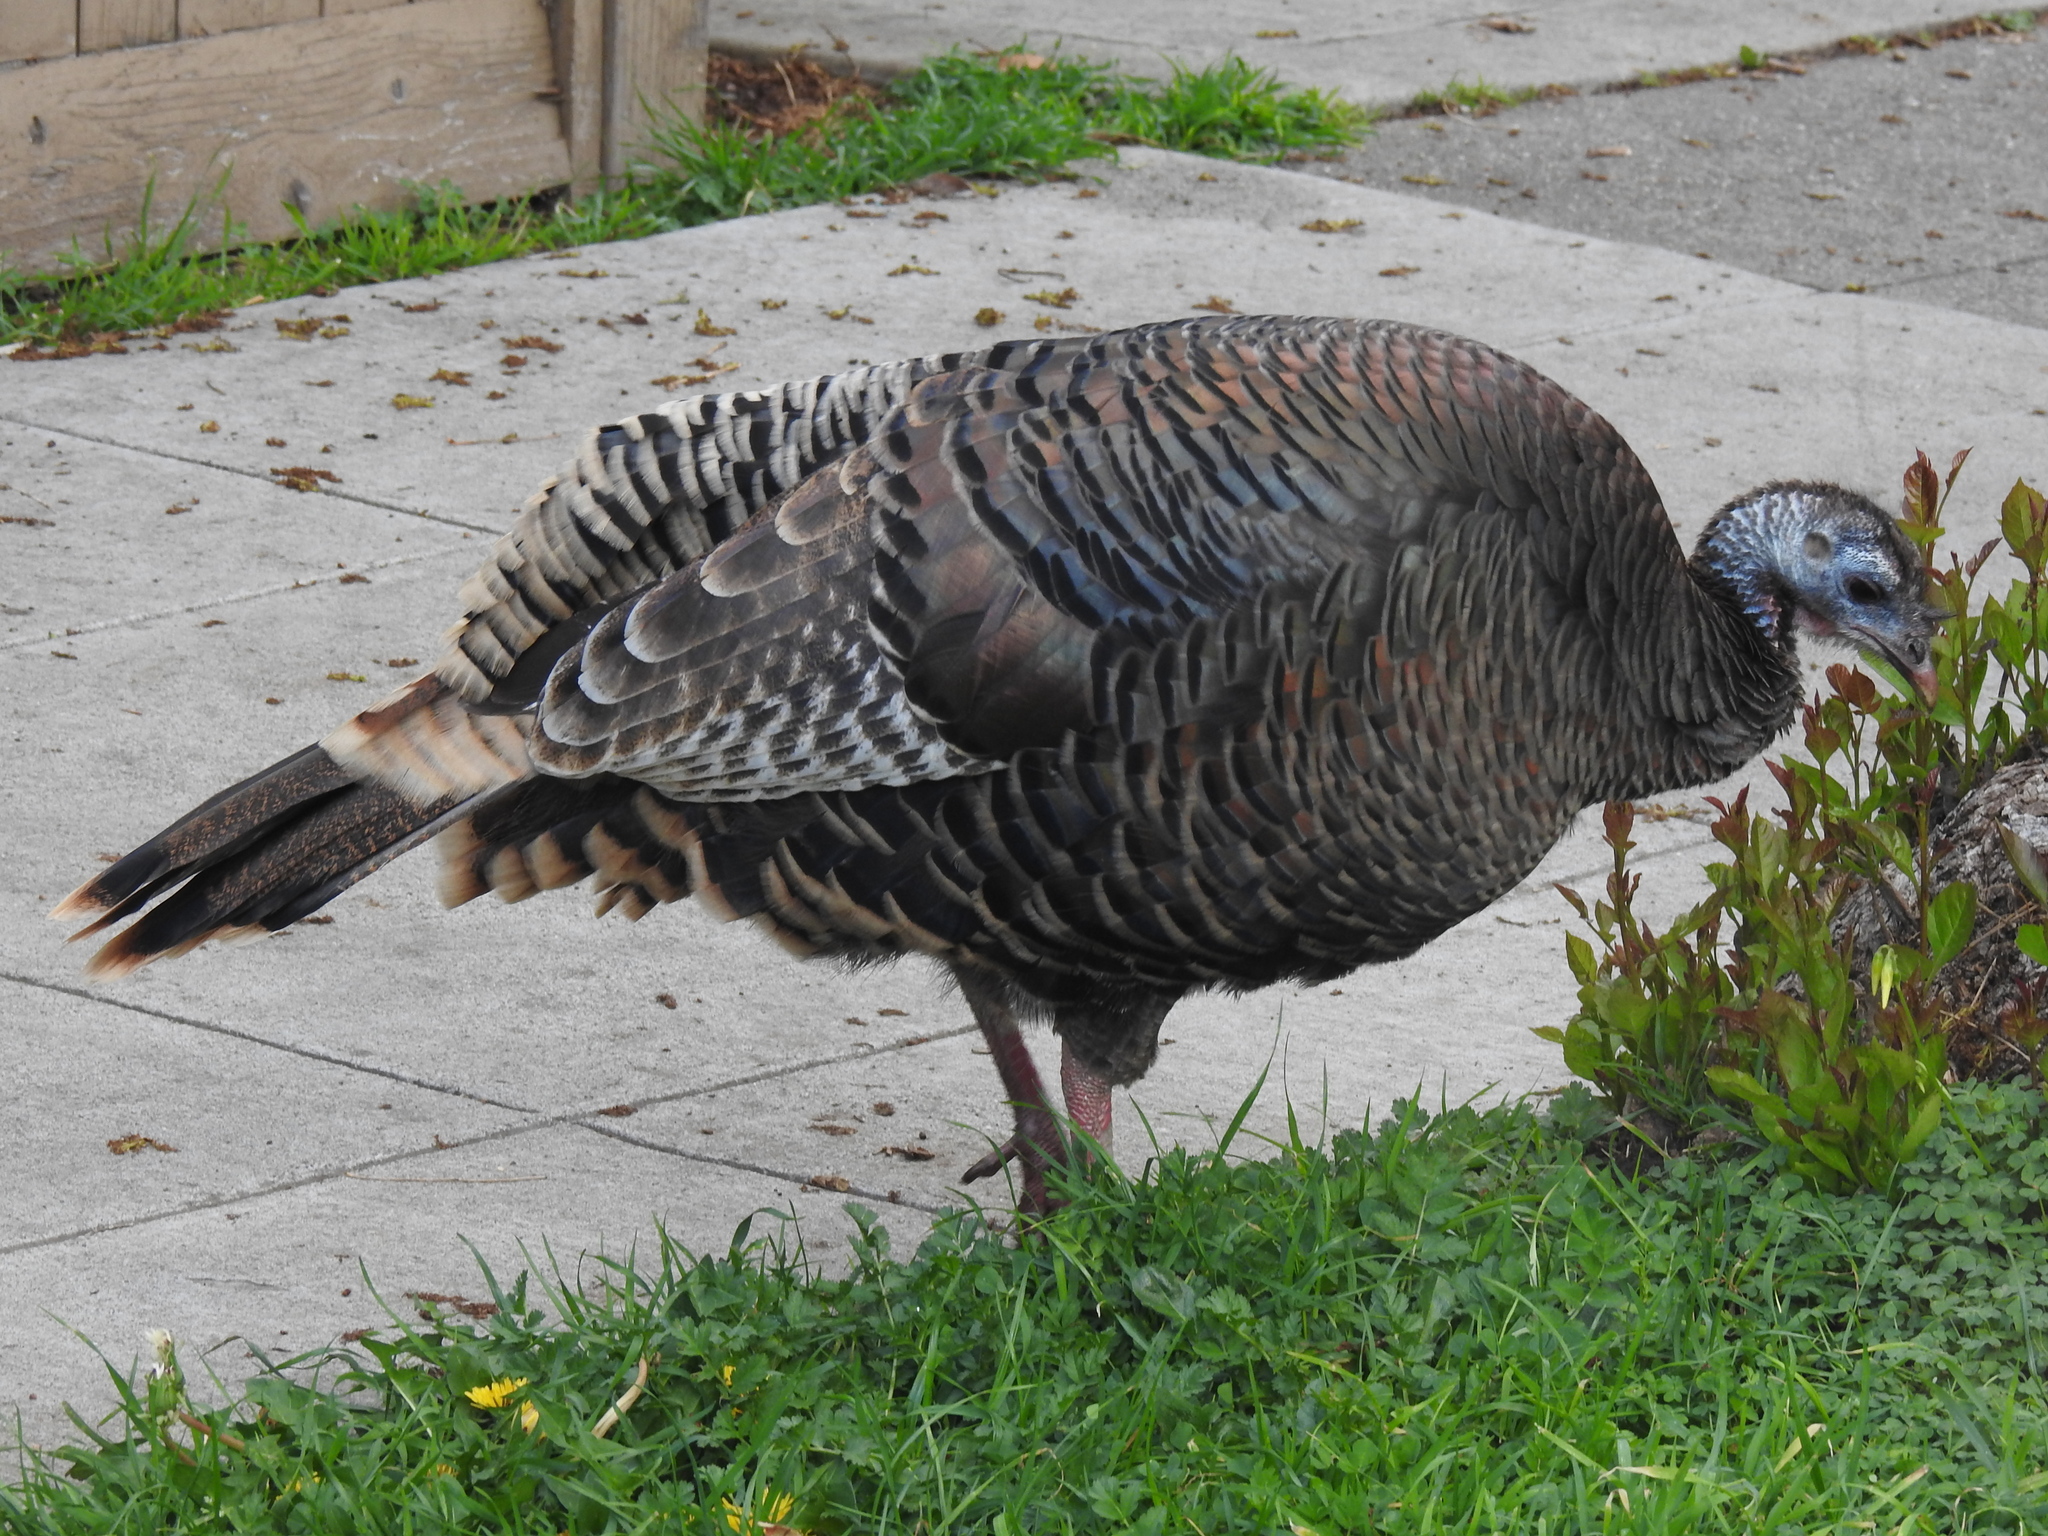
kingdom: Animalia
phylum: Chordata
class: Aves
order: Galliformes
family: Phasianidae
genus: Meleagris
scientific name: Meleagris gallopavo
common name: Wild turkey
